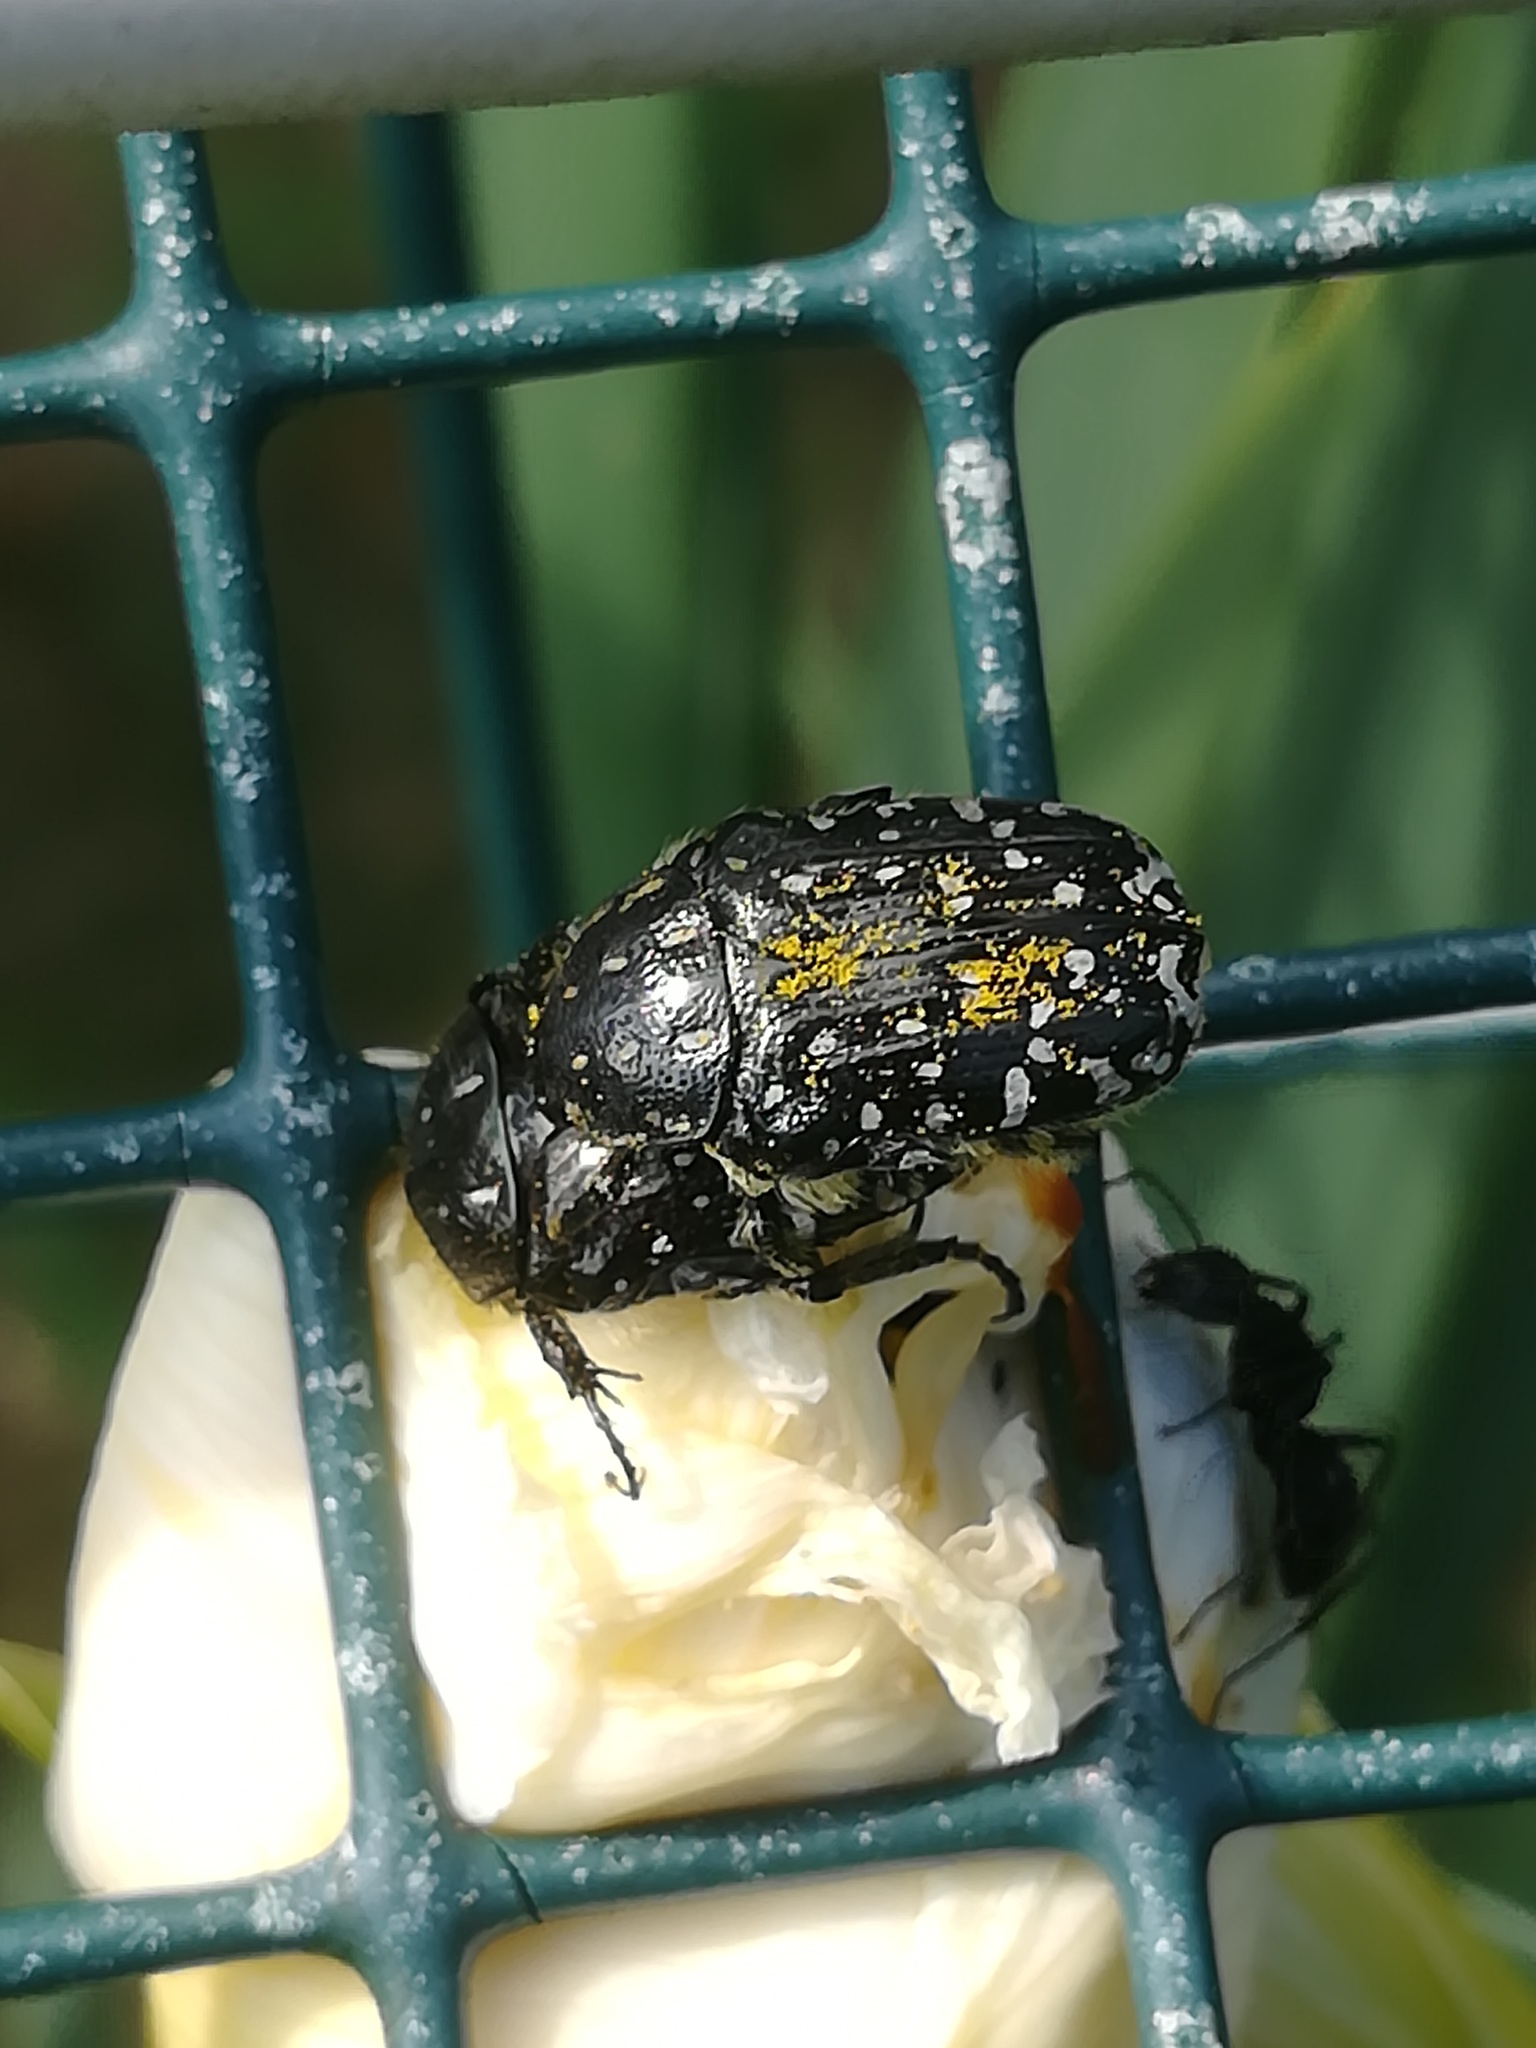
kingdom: Animalia
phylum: Arthropoda
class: Insecta
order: Coleoptera
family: Scarabaeidae
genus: Oxythyrea
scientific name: Oxythyrea funesta
